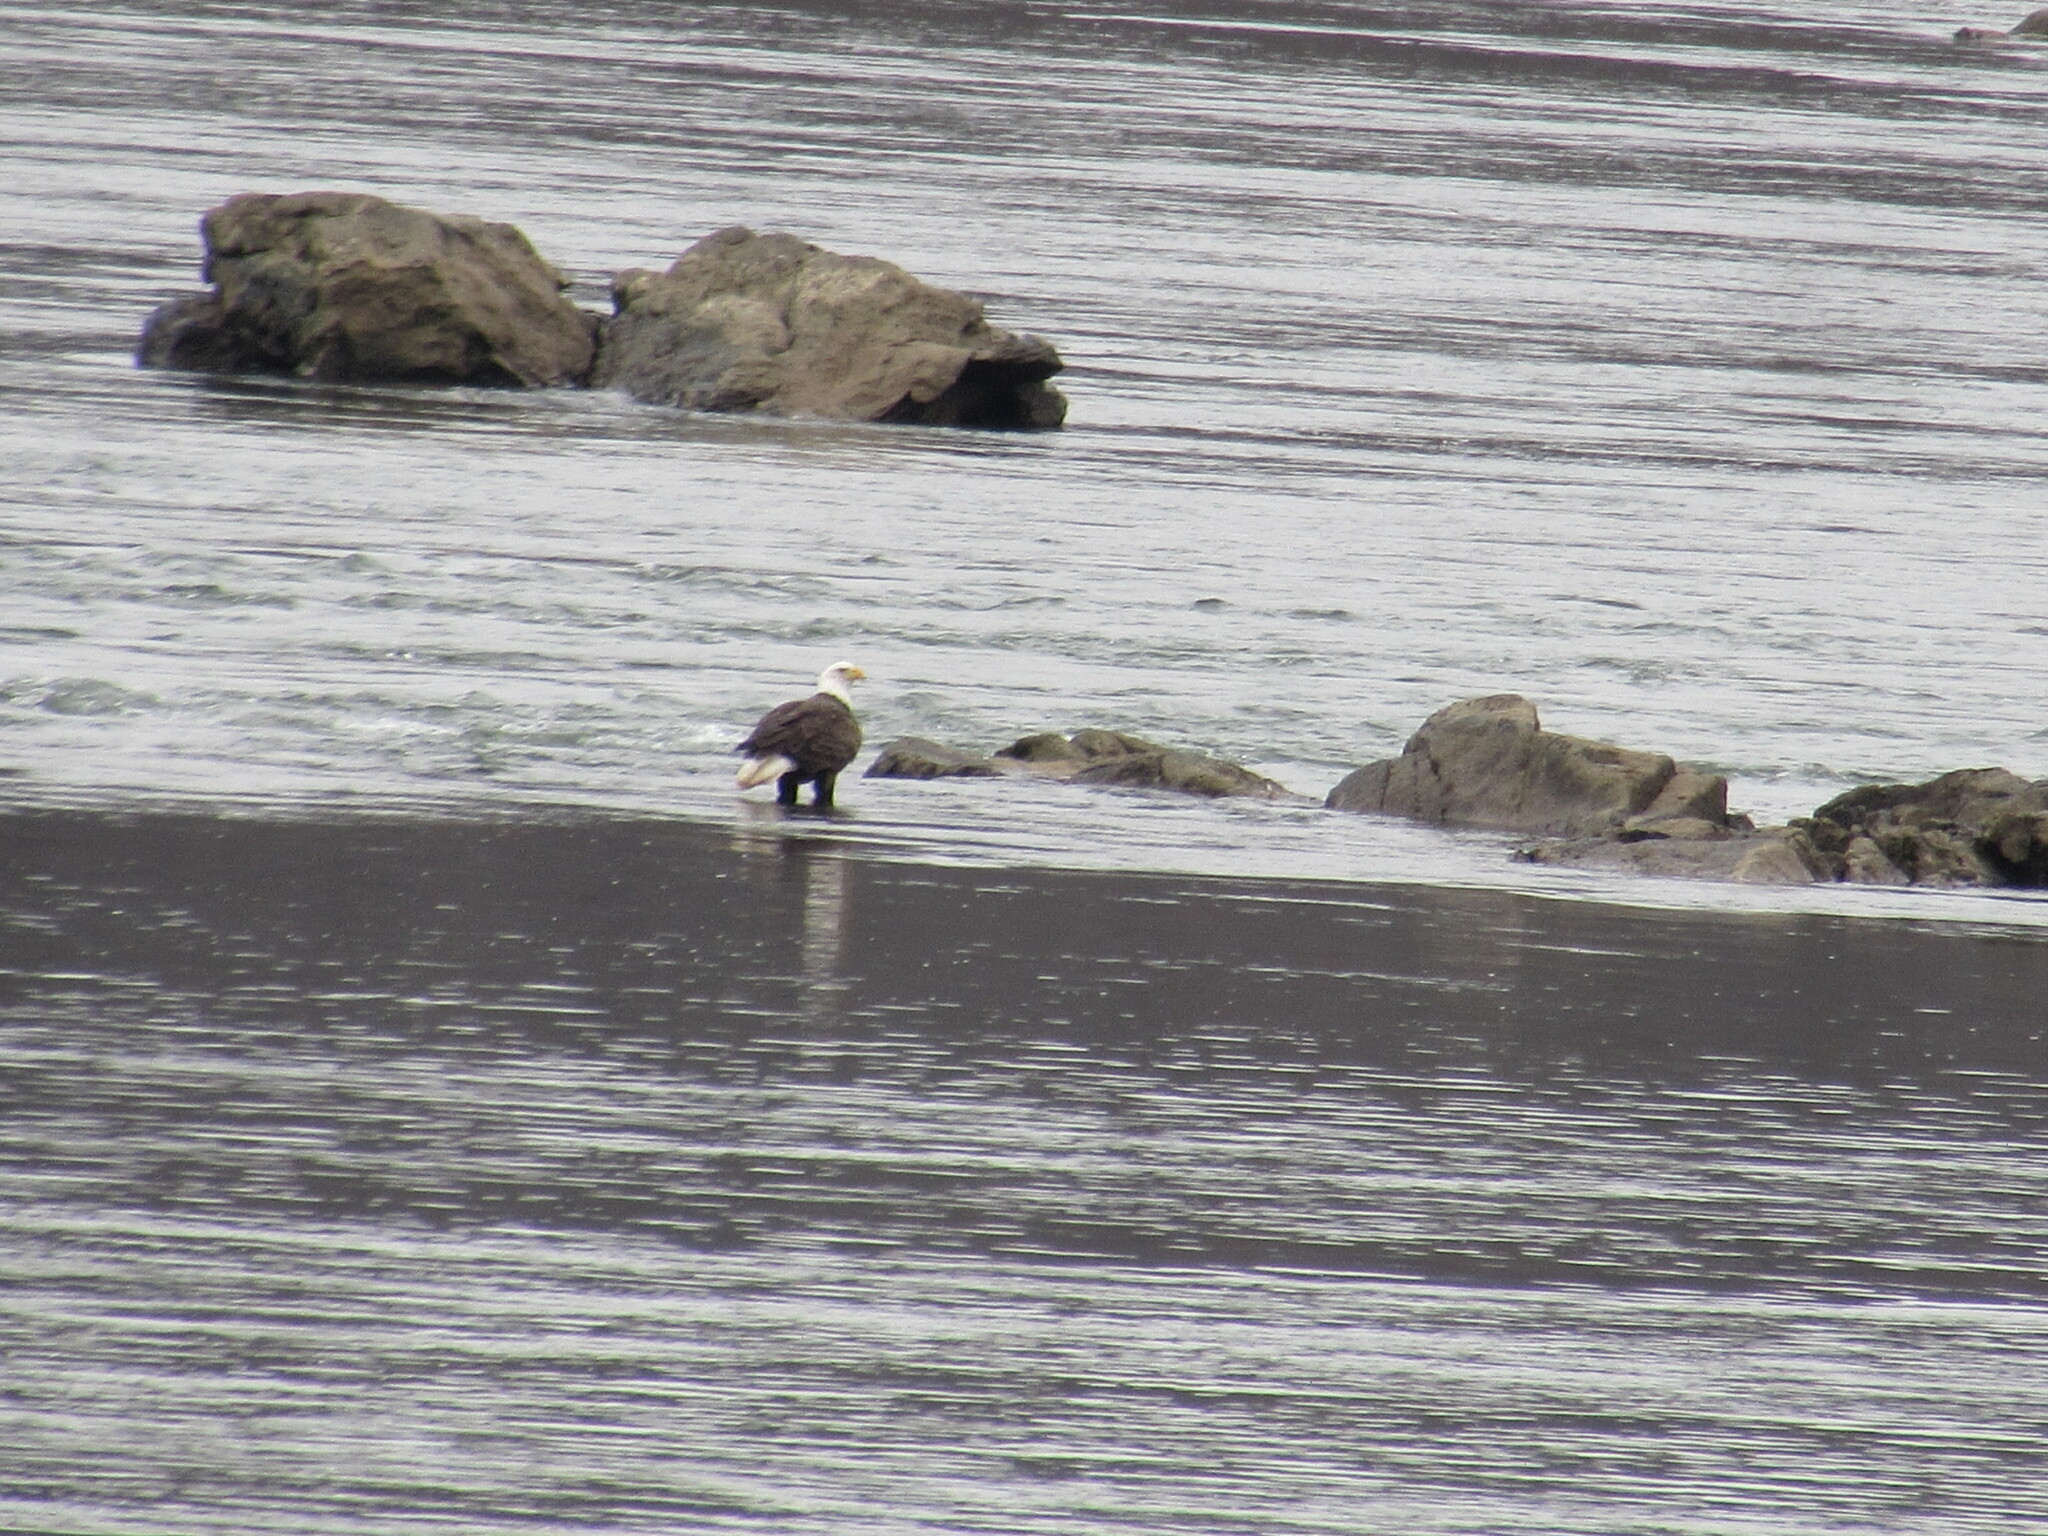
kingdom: Animalia
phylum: Chordata
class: Aves
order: Accipitriformes
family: Accipitridae
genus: Haliaeetus
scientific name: Haliaeetus leucocephalus
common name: Bald eagle
